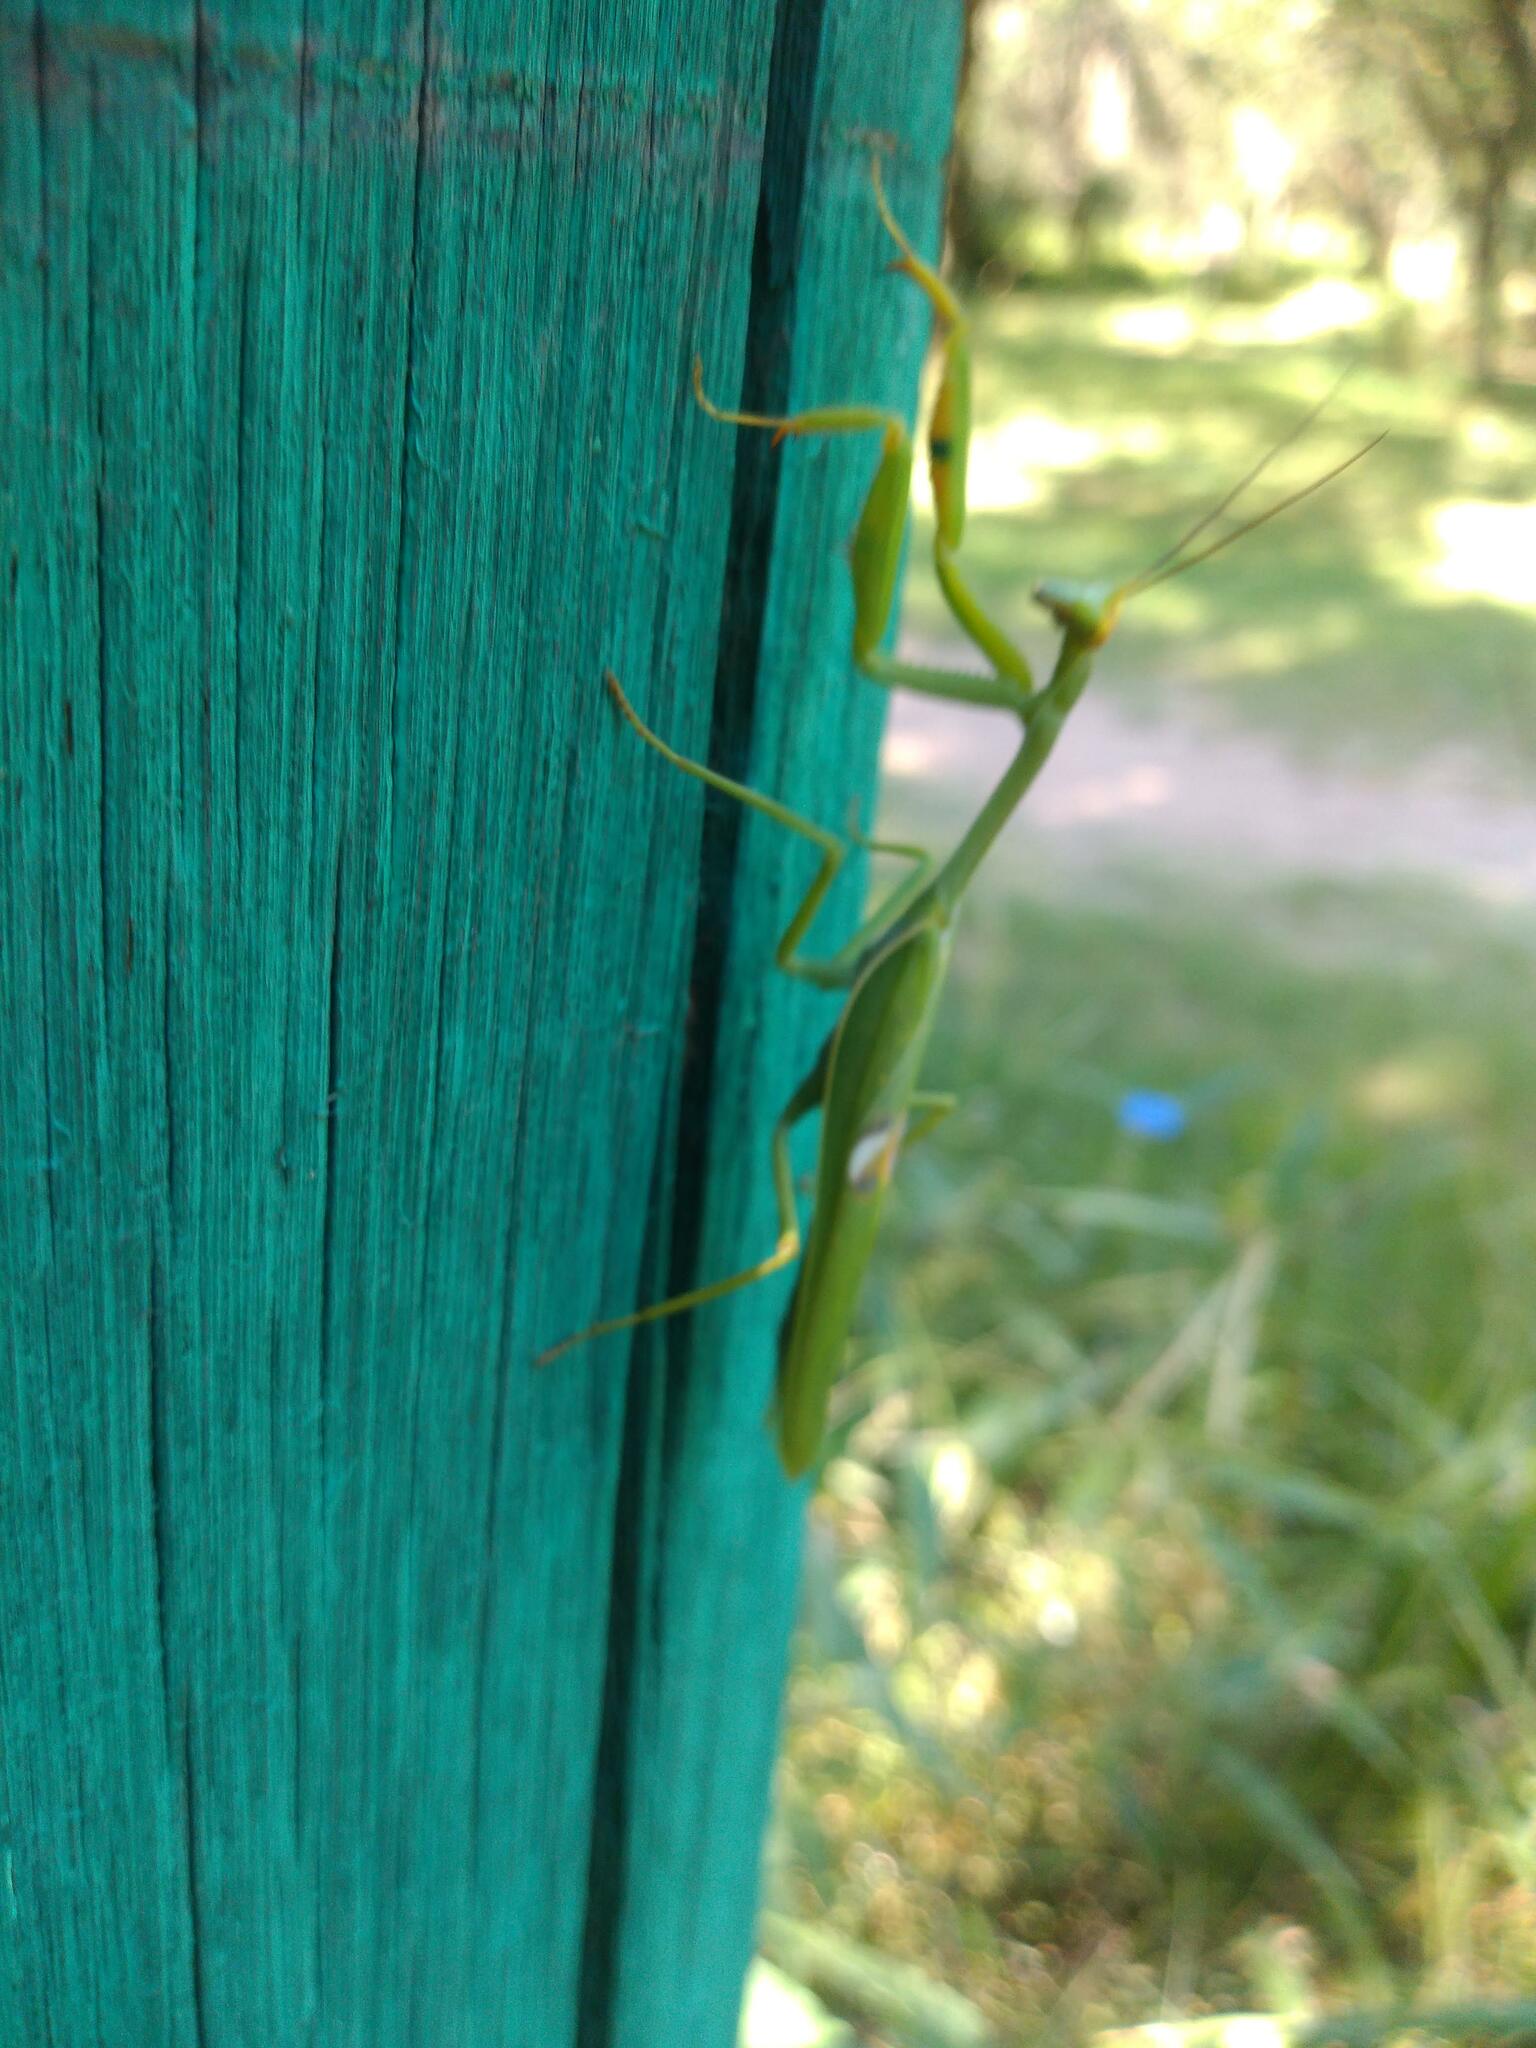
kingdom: Animalia
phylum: Arthropoda
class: Insecta
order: Mantodea
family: Mantidae
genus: Stagmatoptera
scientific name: Stagmatoptera hyaloptera
